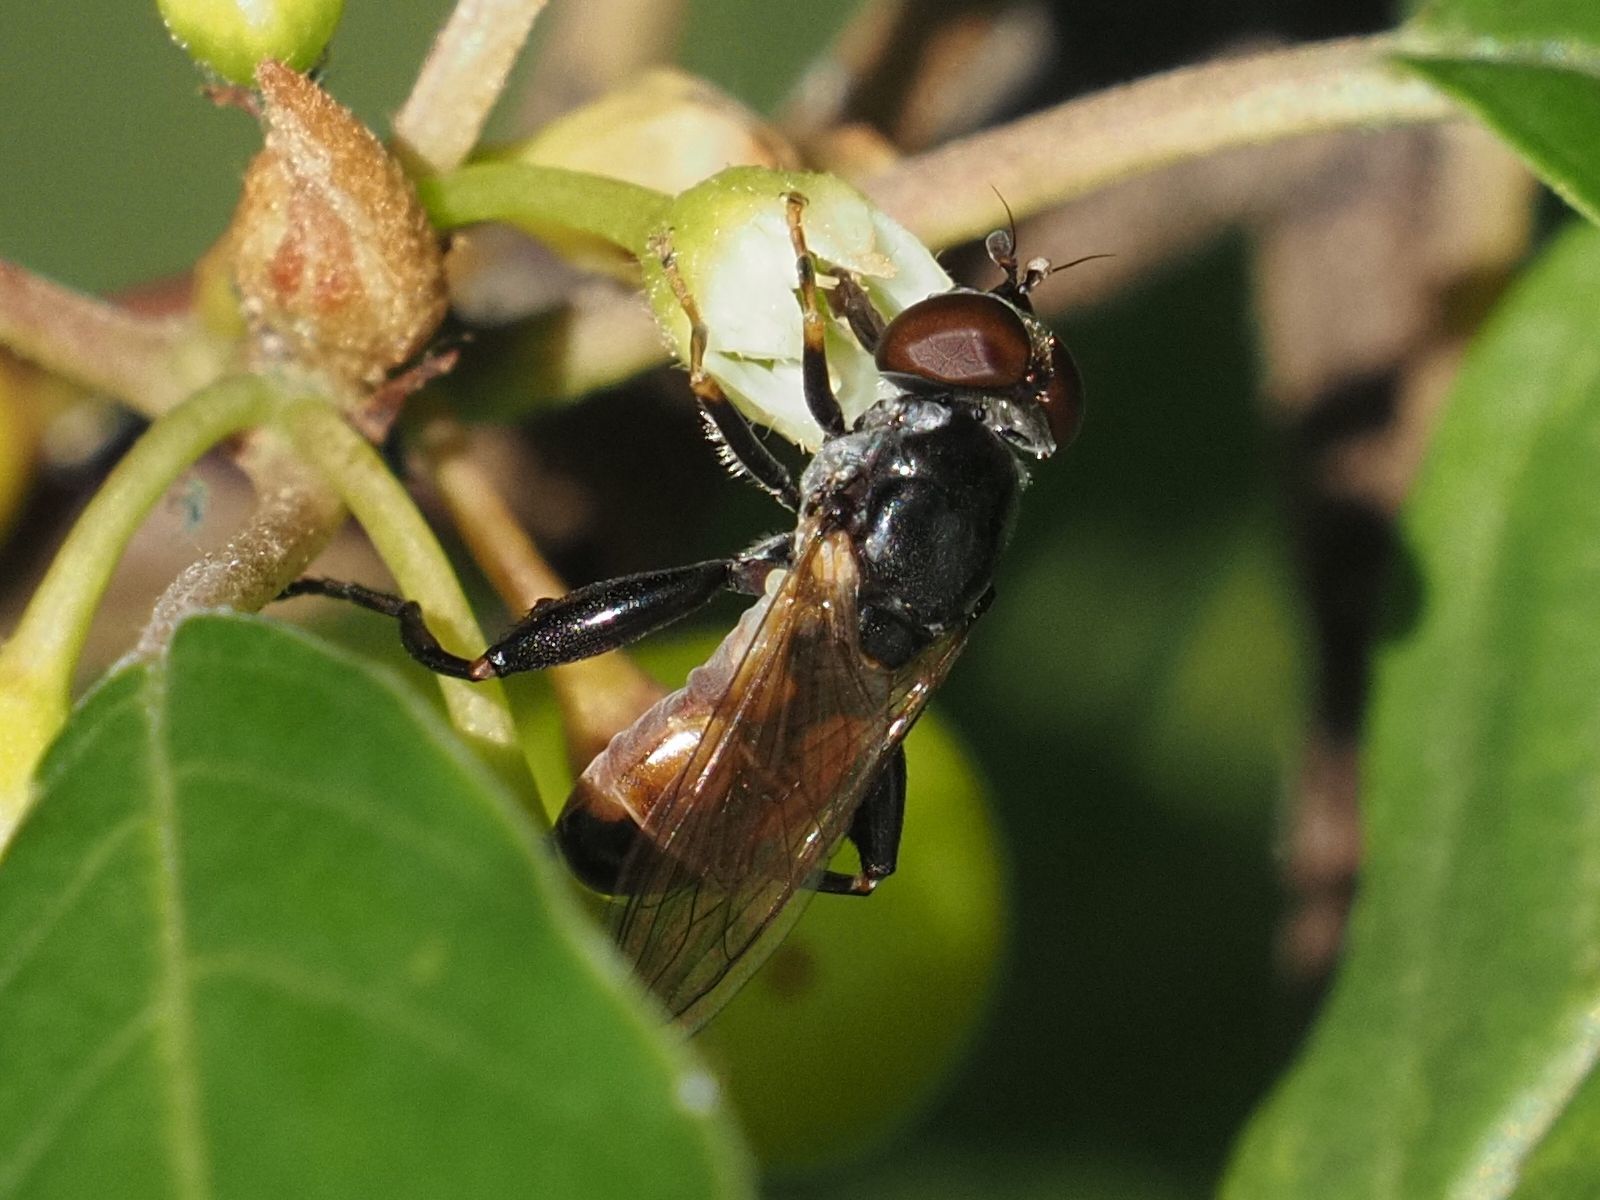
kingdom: Animalia
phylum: Arthropoda
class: Insecta
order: Diptera
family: Syrphidae
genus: Tropidia
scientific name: Tropidia scita
